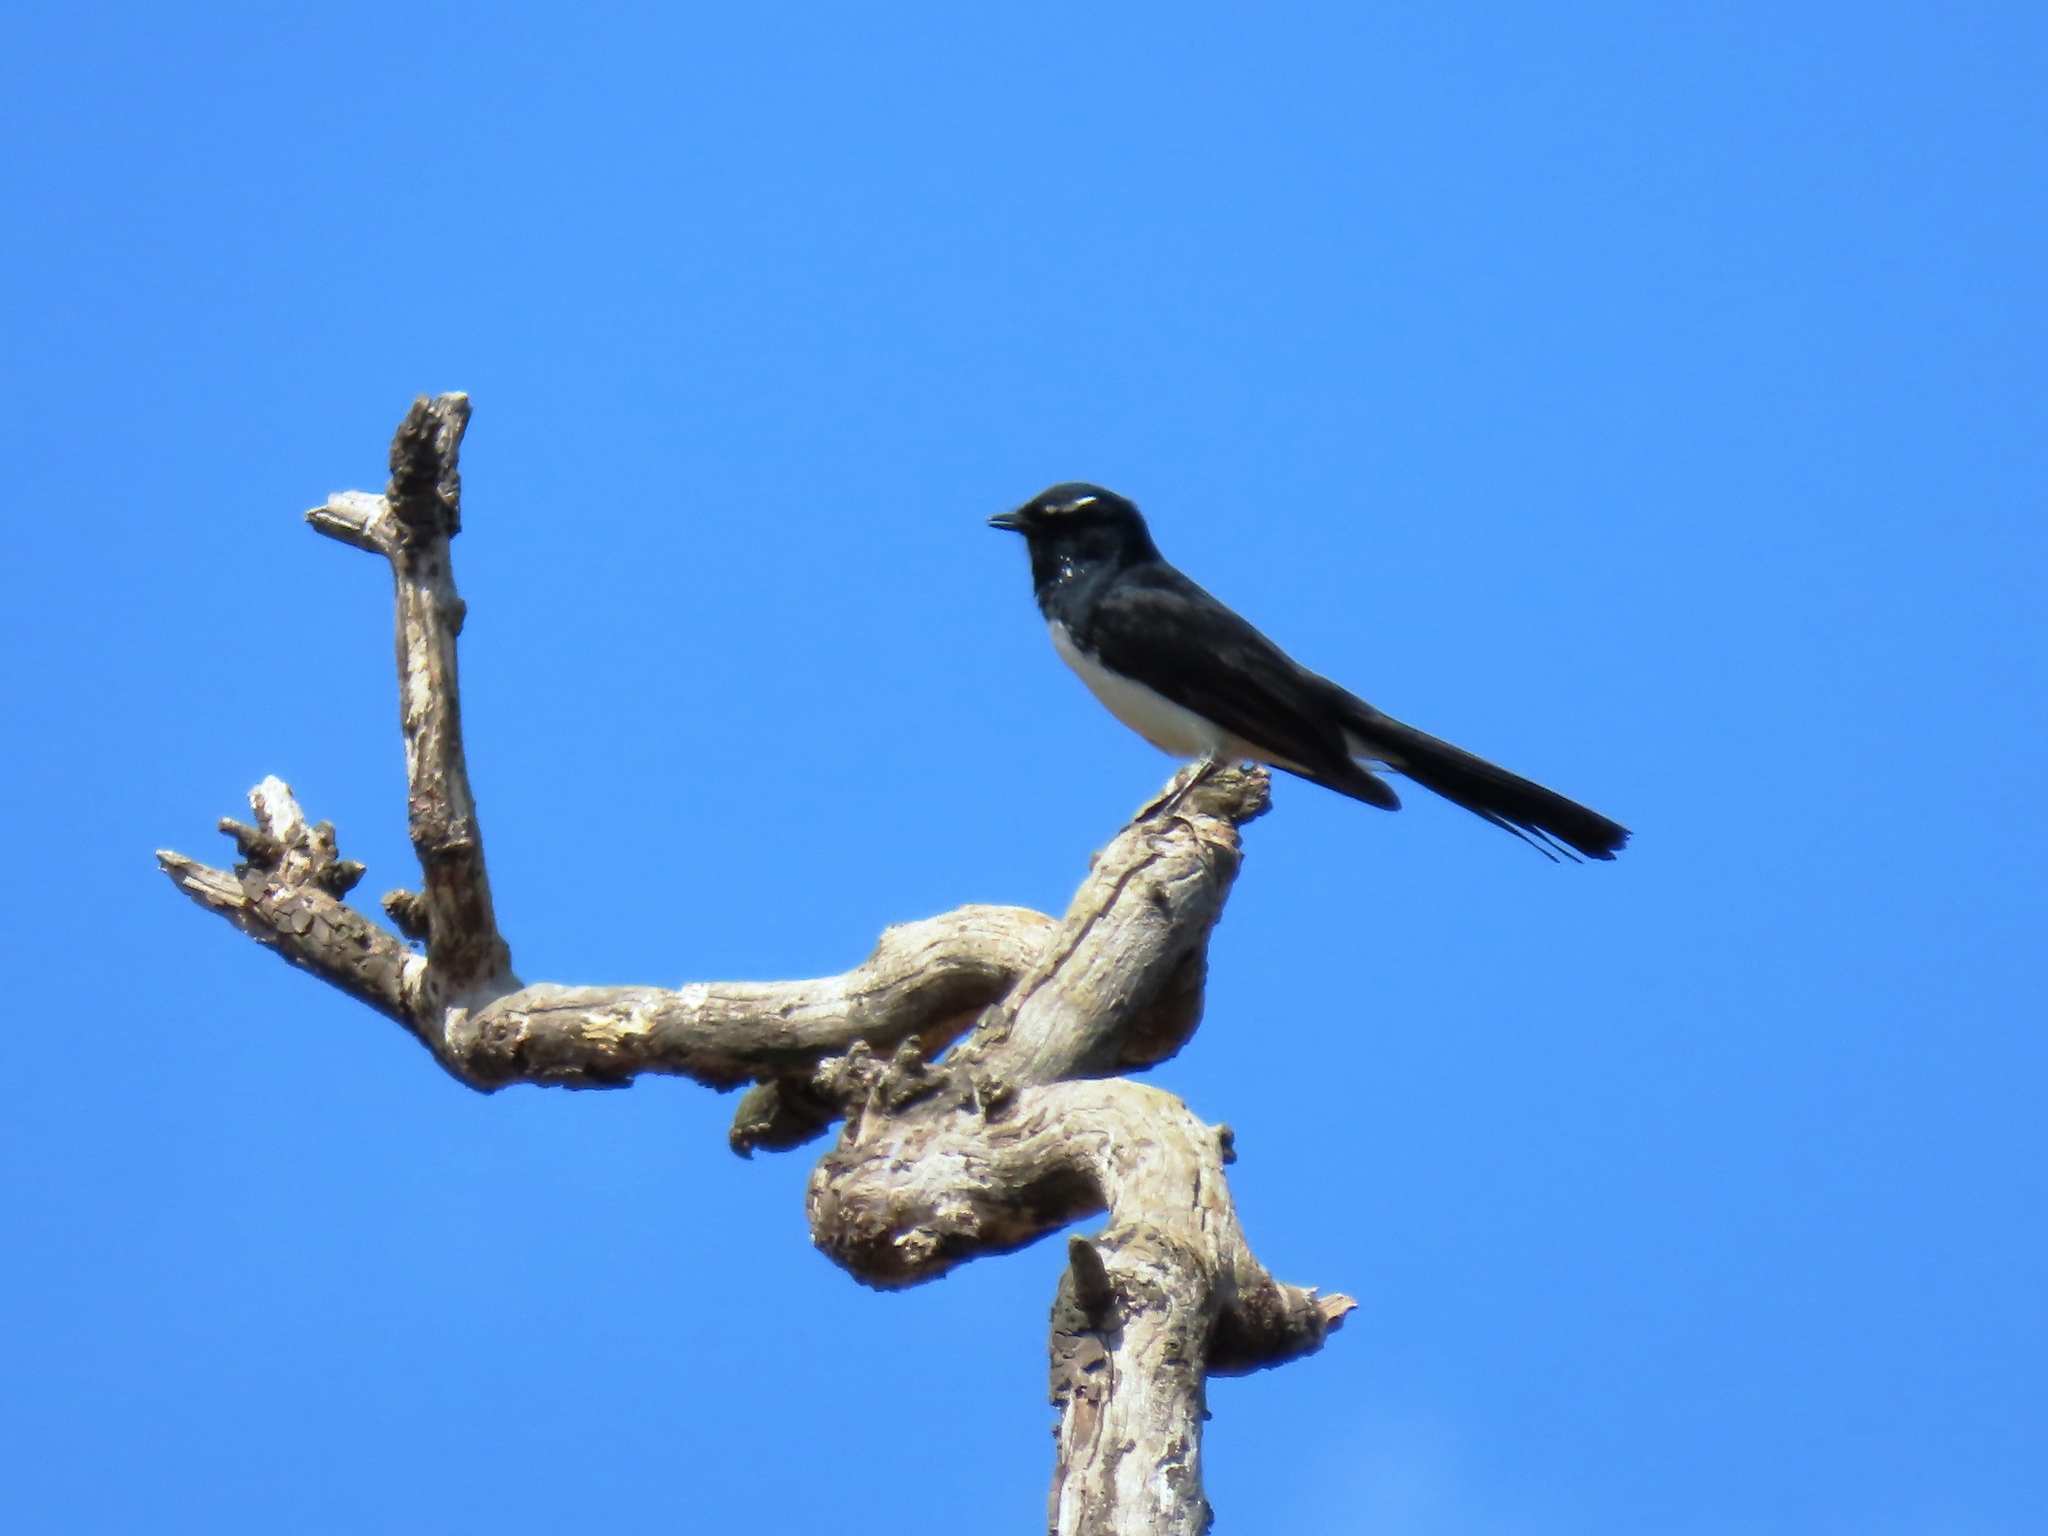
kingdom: Animalia
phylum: Chordata
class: Aves
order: Passeriformes
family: Rhipiduridae
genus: Rhipidura
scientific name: Rhipidura leucophrys
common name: Willie wagtail
